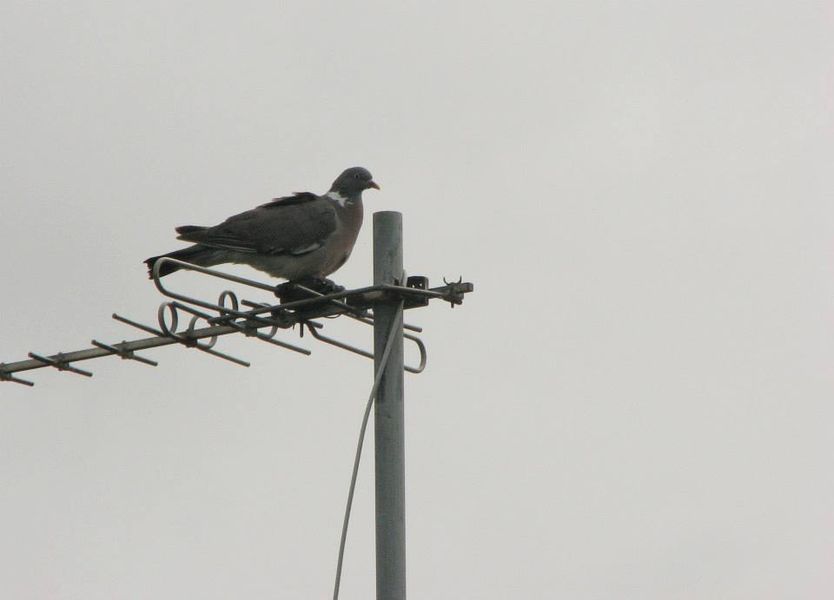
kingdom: Animalia
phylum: Chordata
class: Aves
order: Columbiformes
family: Columbidae
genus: Columba
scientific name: Columba palumbus
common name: Common wood pigeon
